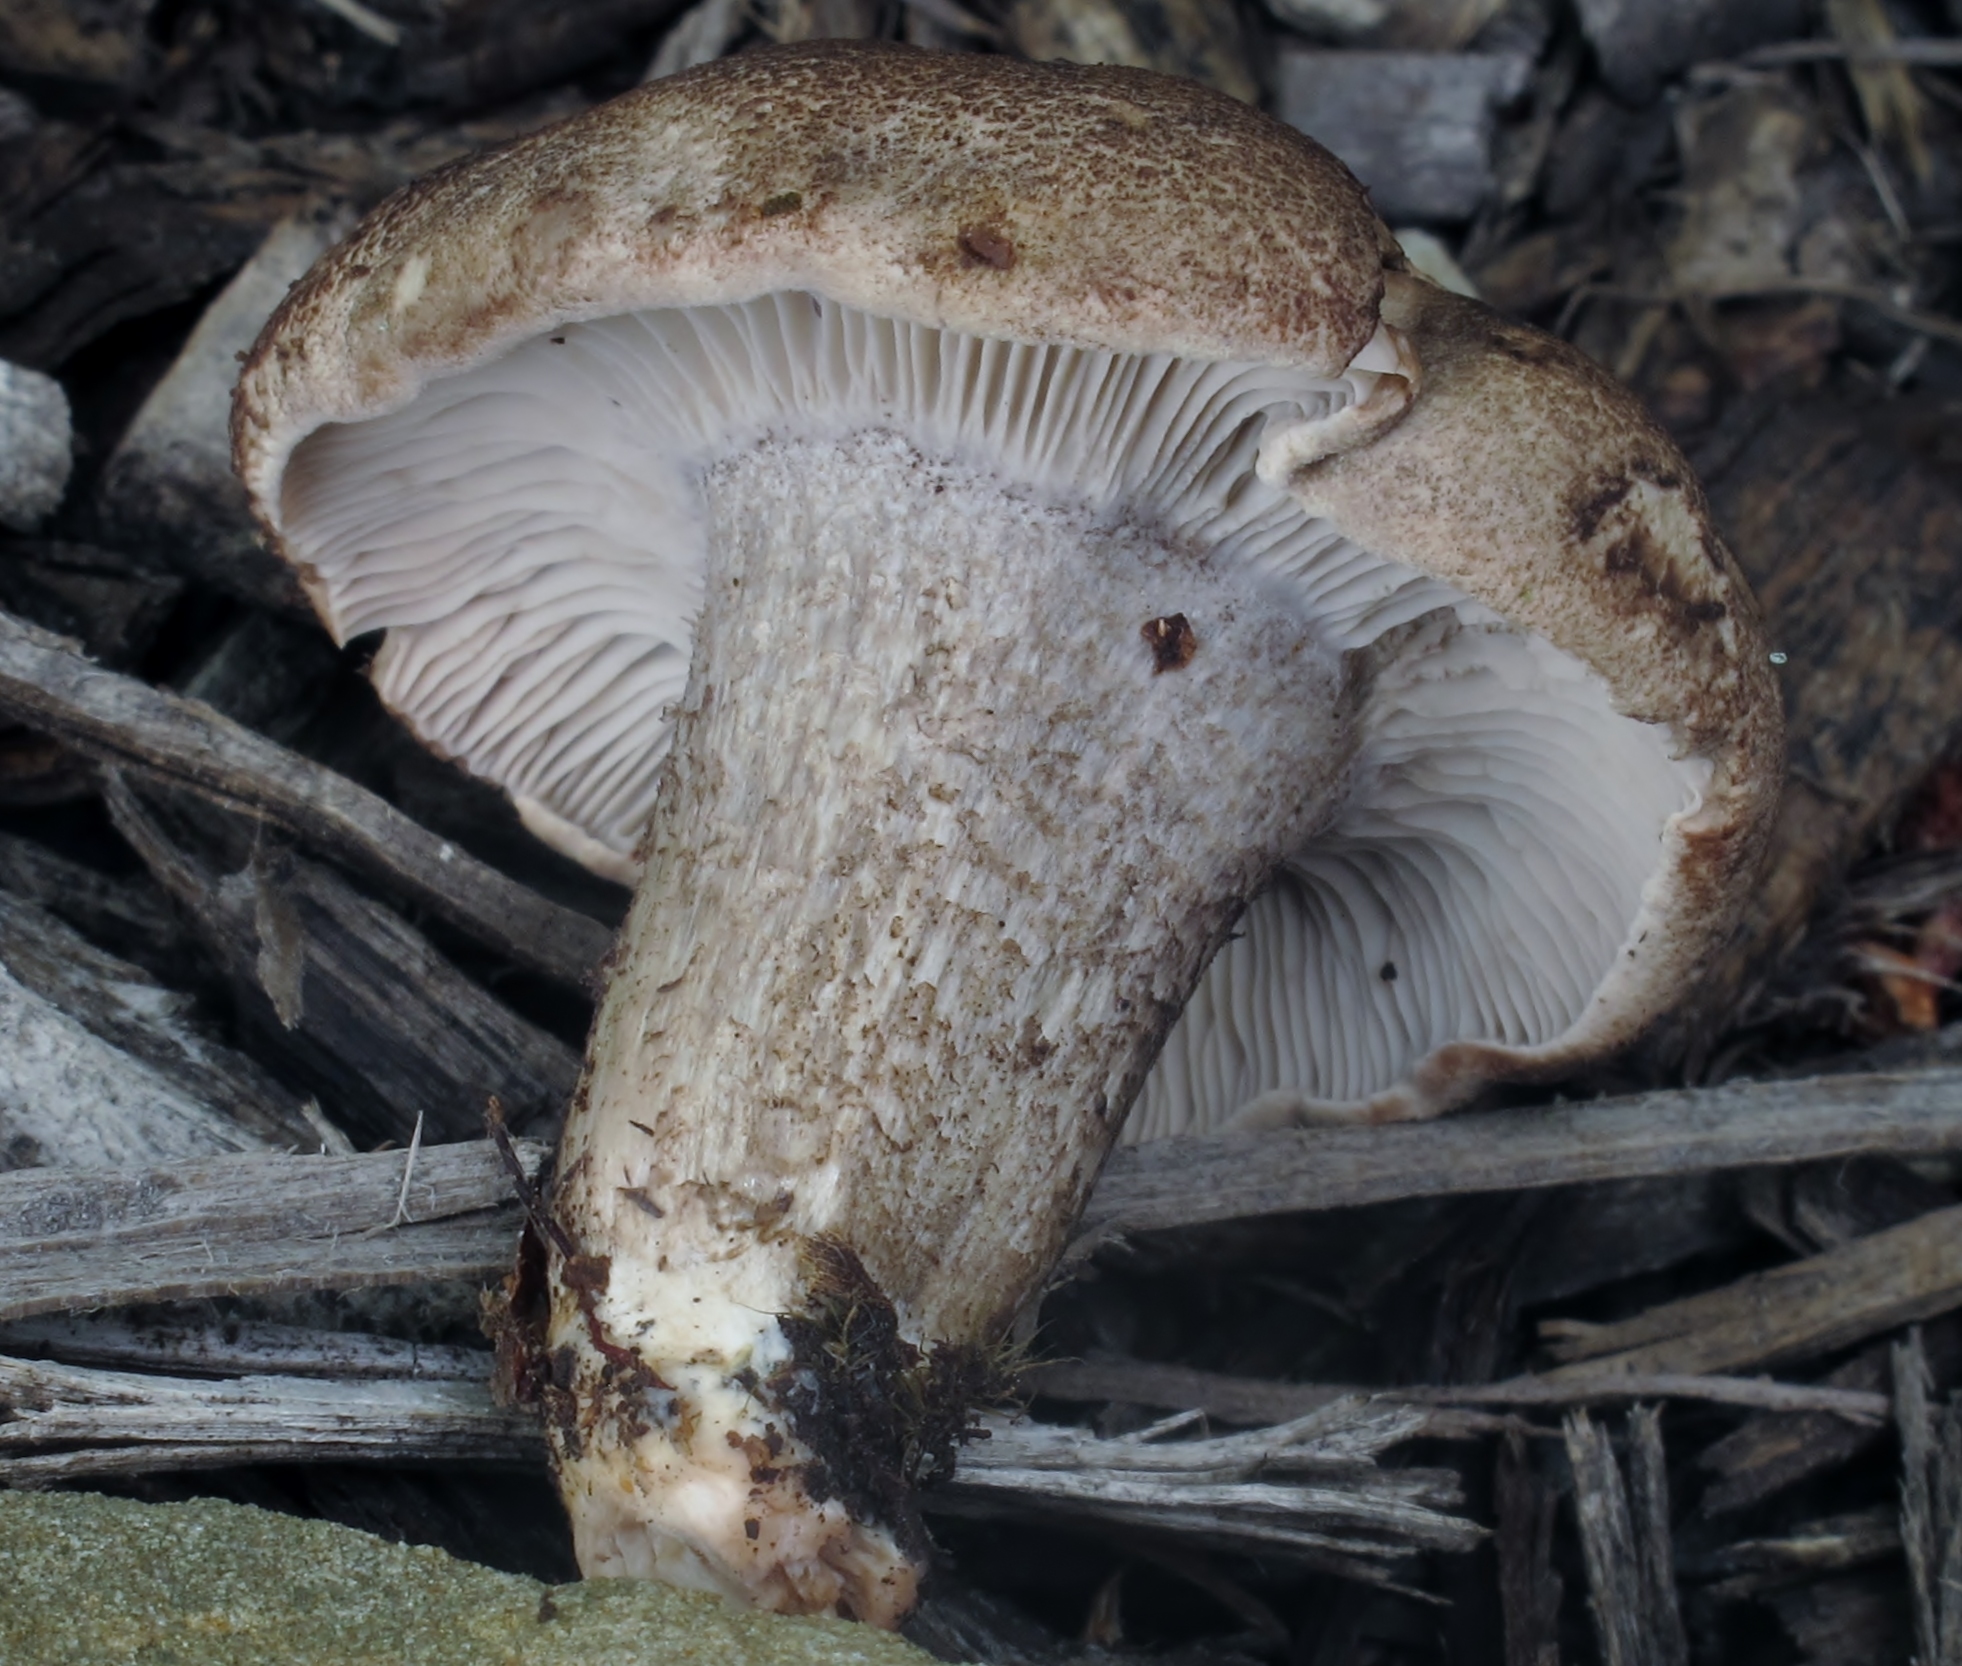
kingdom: Fungi
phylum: Basidiomycota
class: Agaricomycetes
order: Agaricales
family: Tricholomataceae
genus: Pseudotricholoma
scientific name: Pseudotricholoma umbrosum
